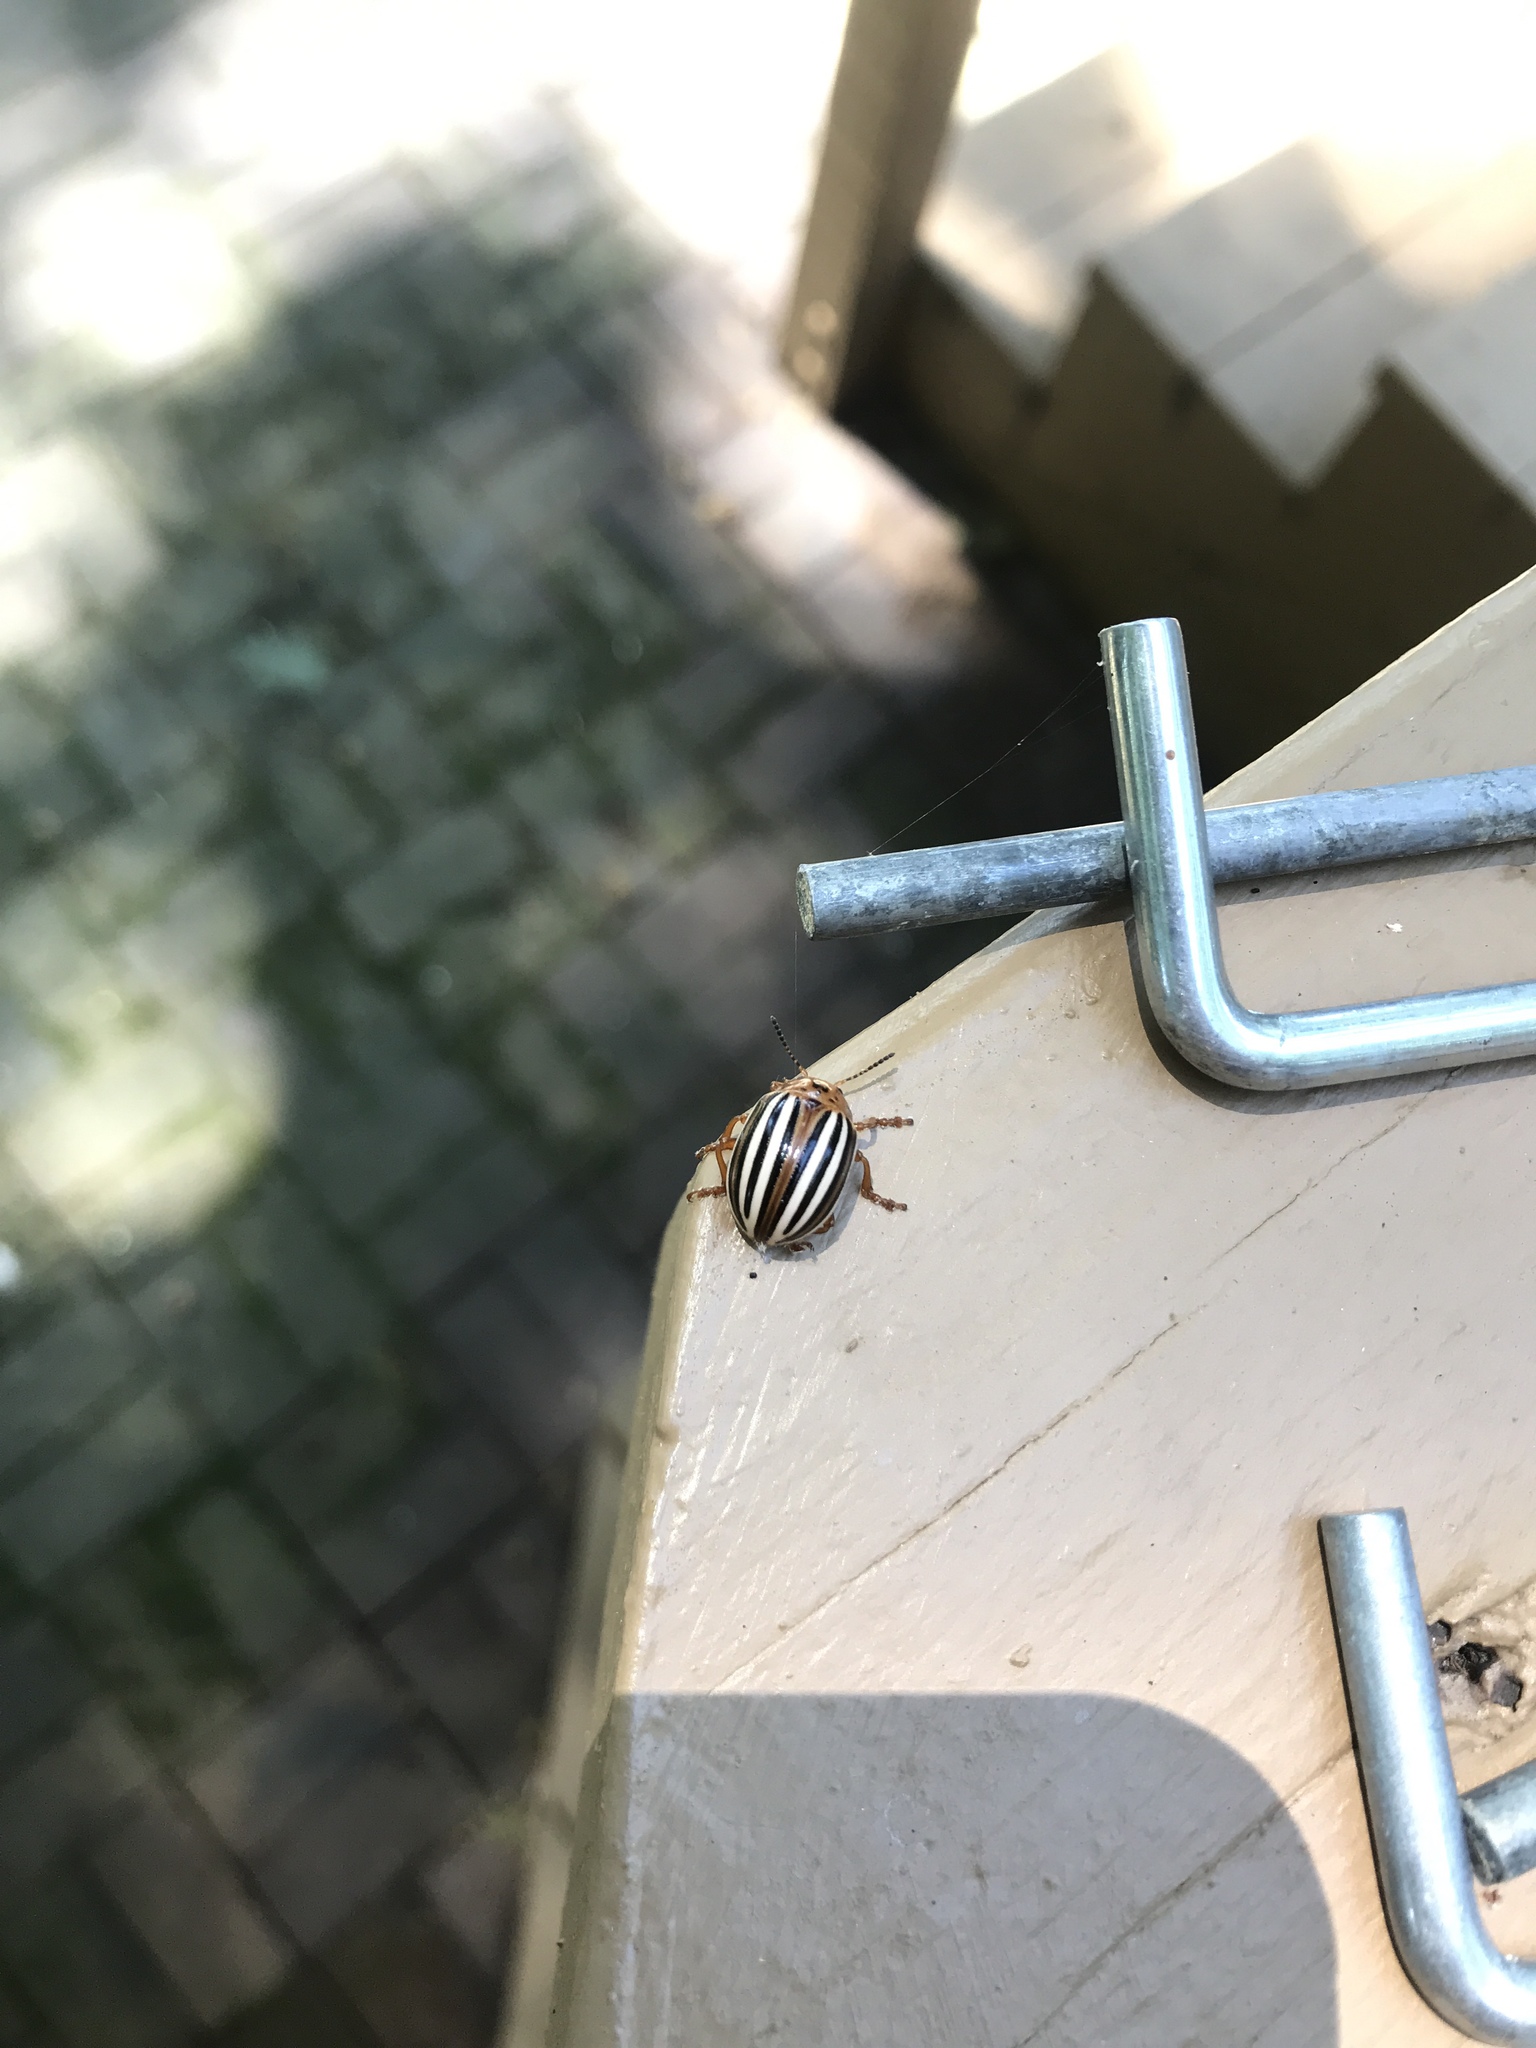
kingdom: Animalia
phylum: Arthropoda
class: Insecta
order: Coleoptera
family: Chrysomelidae
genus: Leptinotarsa
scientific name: Leptinotarsa juncta
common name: False potato beetle
